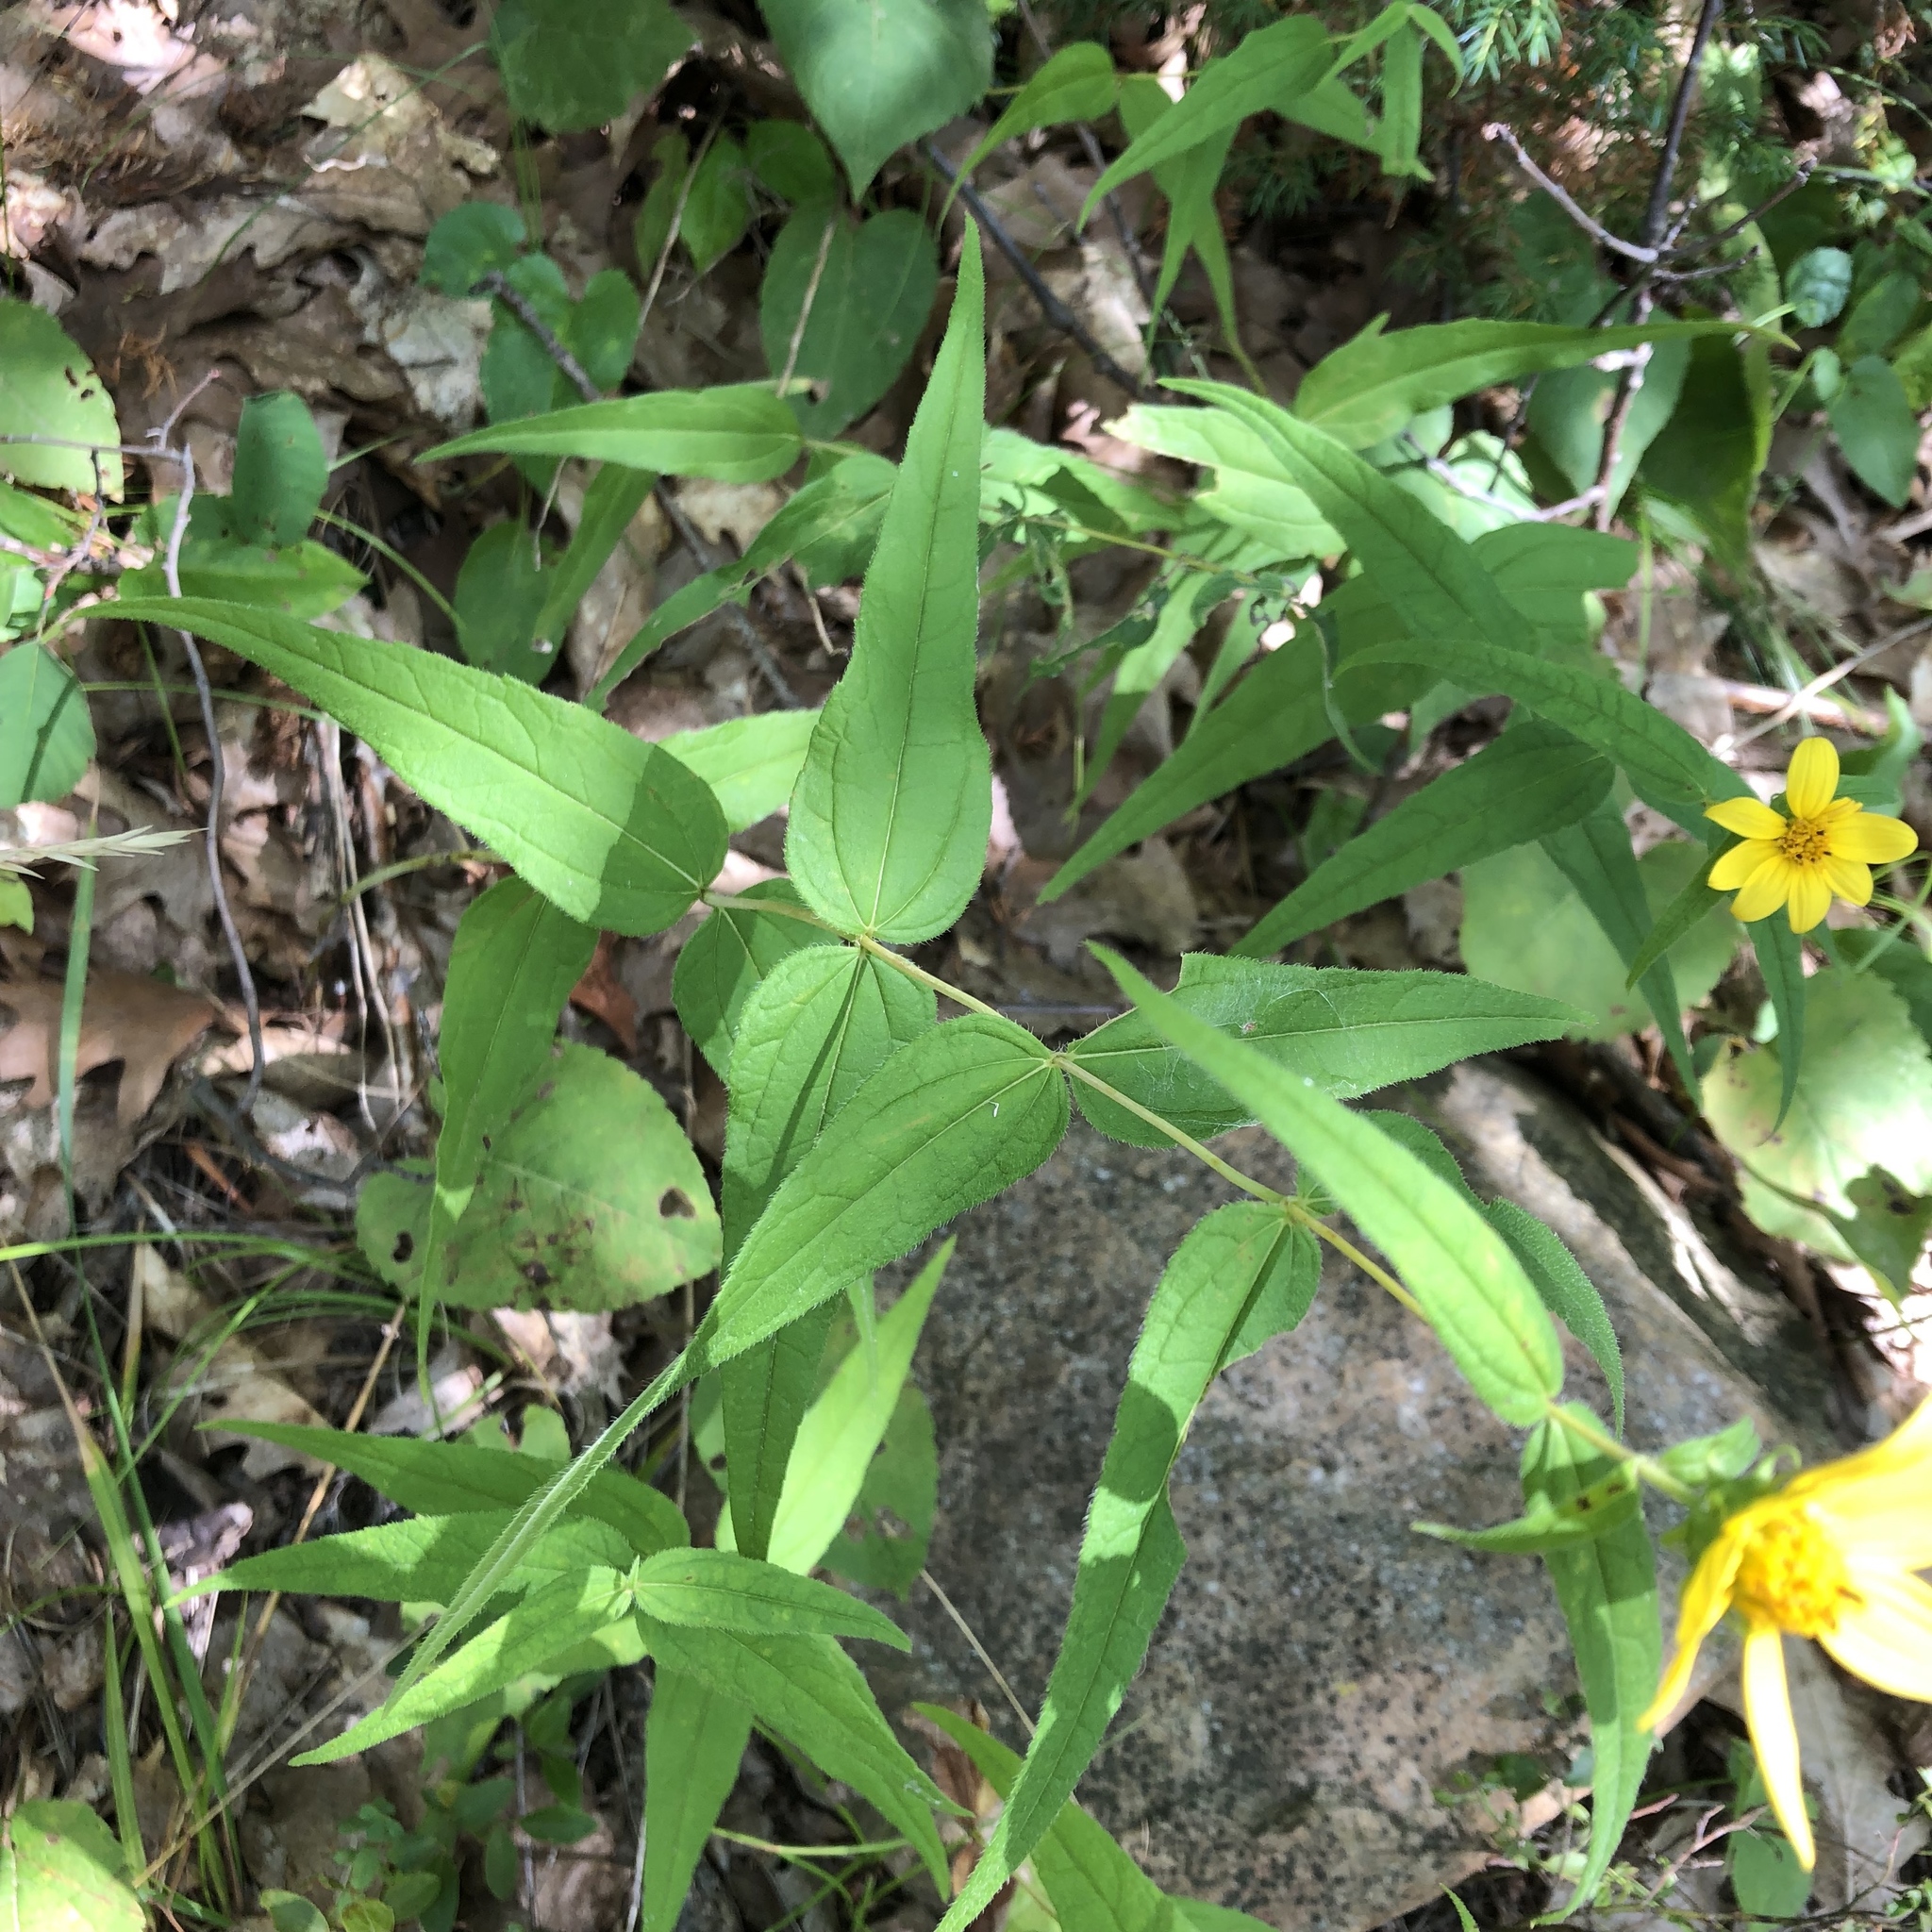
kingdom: Plantae
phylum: Tracheophyta
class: Magnoliopsida
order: Asterales
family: Asteraceae
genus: Helianthus
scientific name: Helianthus divaricatus
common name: Divergent sunflower
